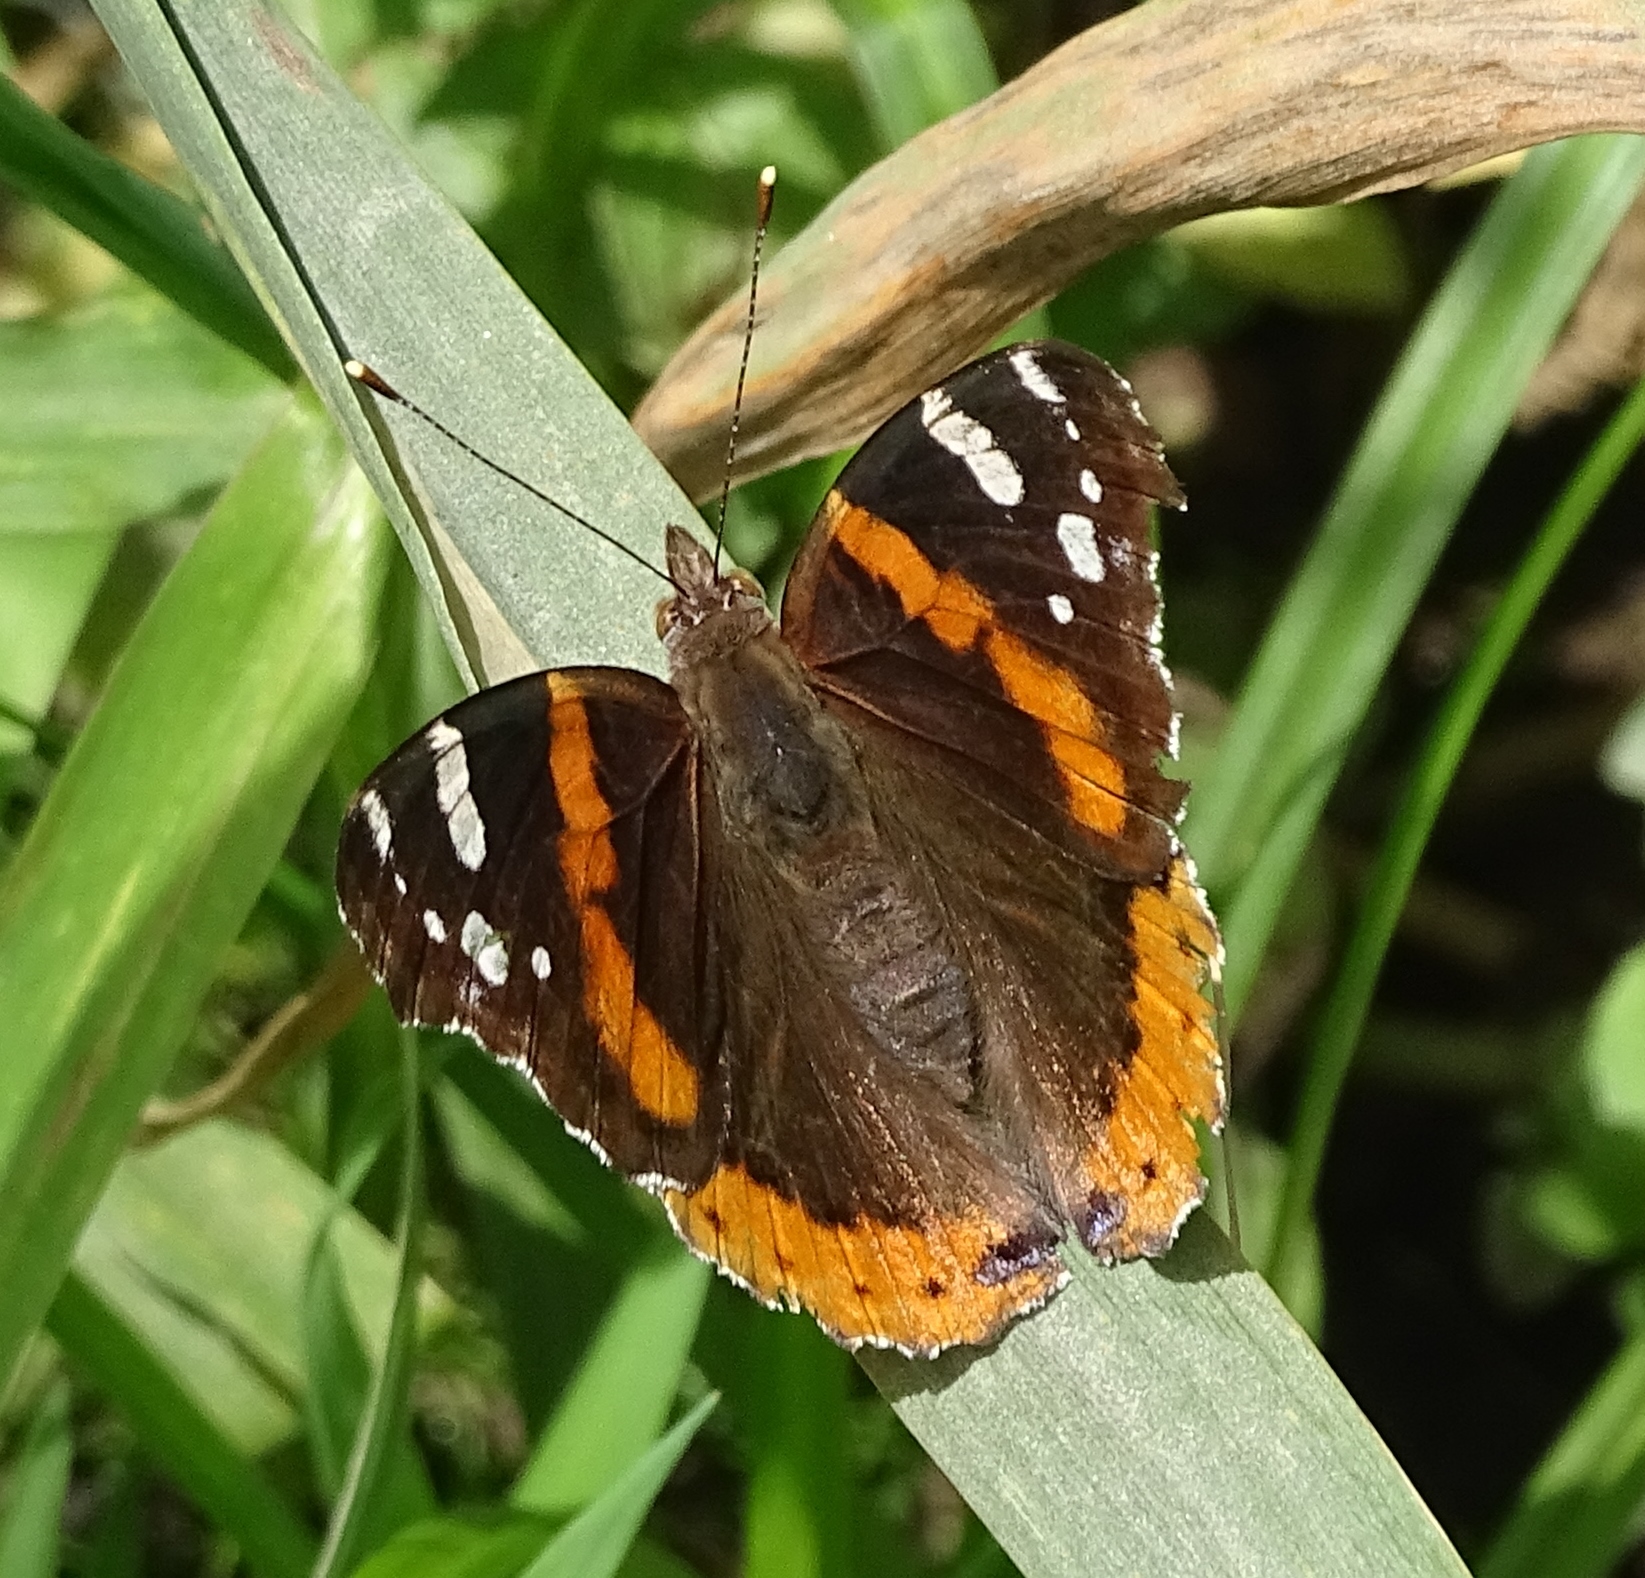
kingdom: Animalia
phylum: Arthropoda
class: Insecta
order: Lepidoptera
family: Nymphalidae
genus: Vanessa
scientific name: Vanessa atalanta
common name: Red admiral
